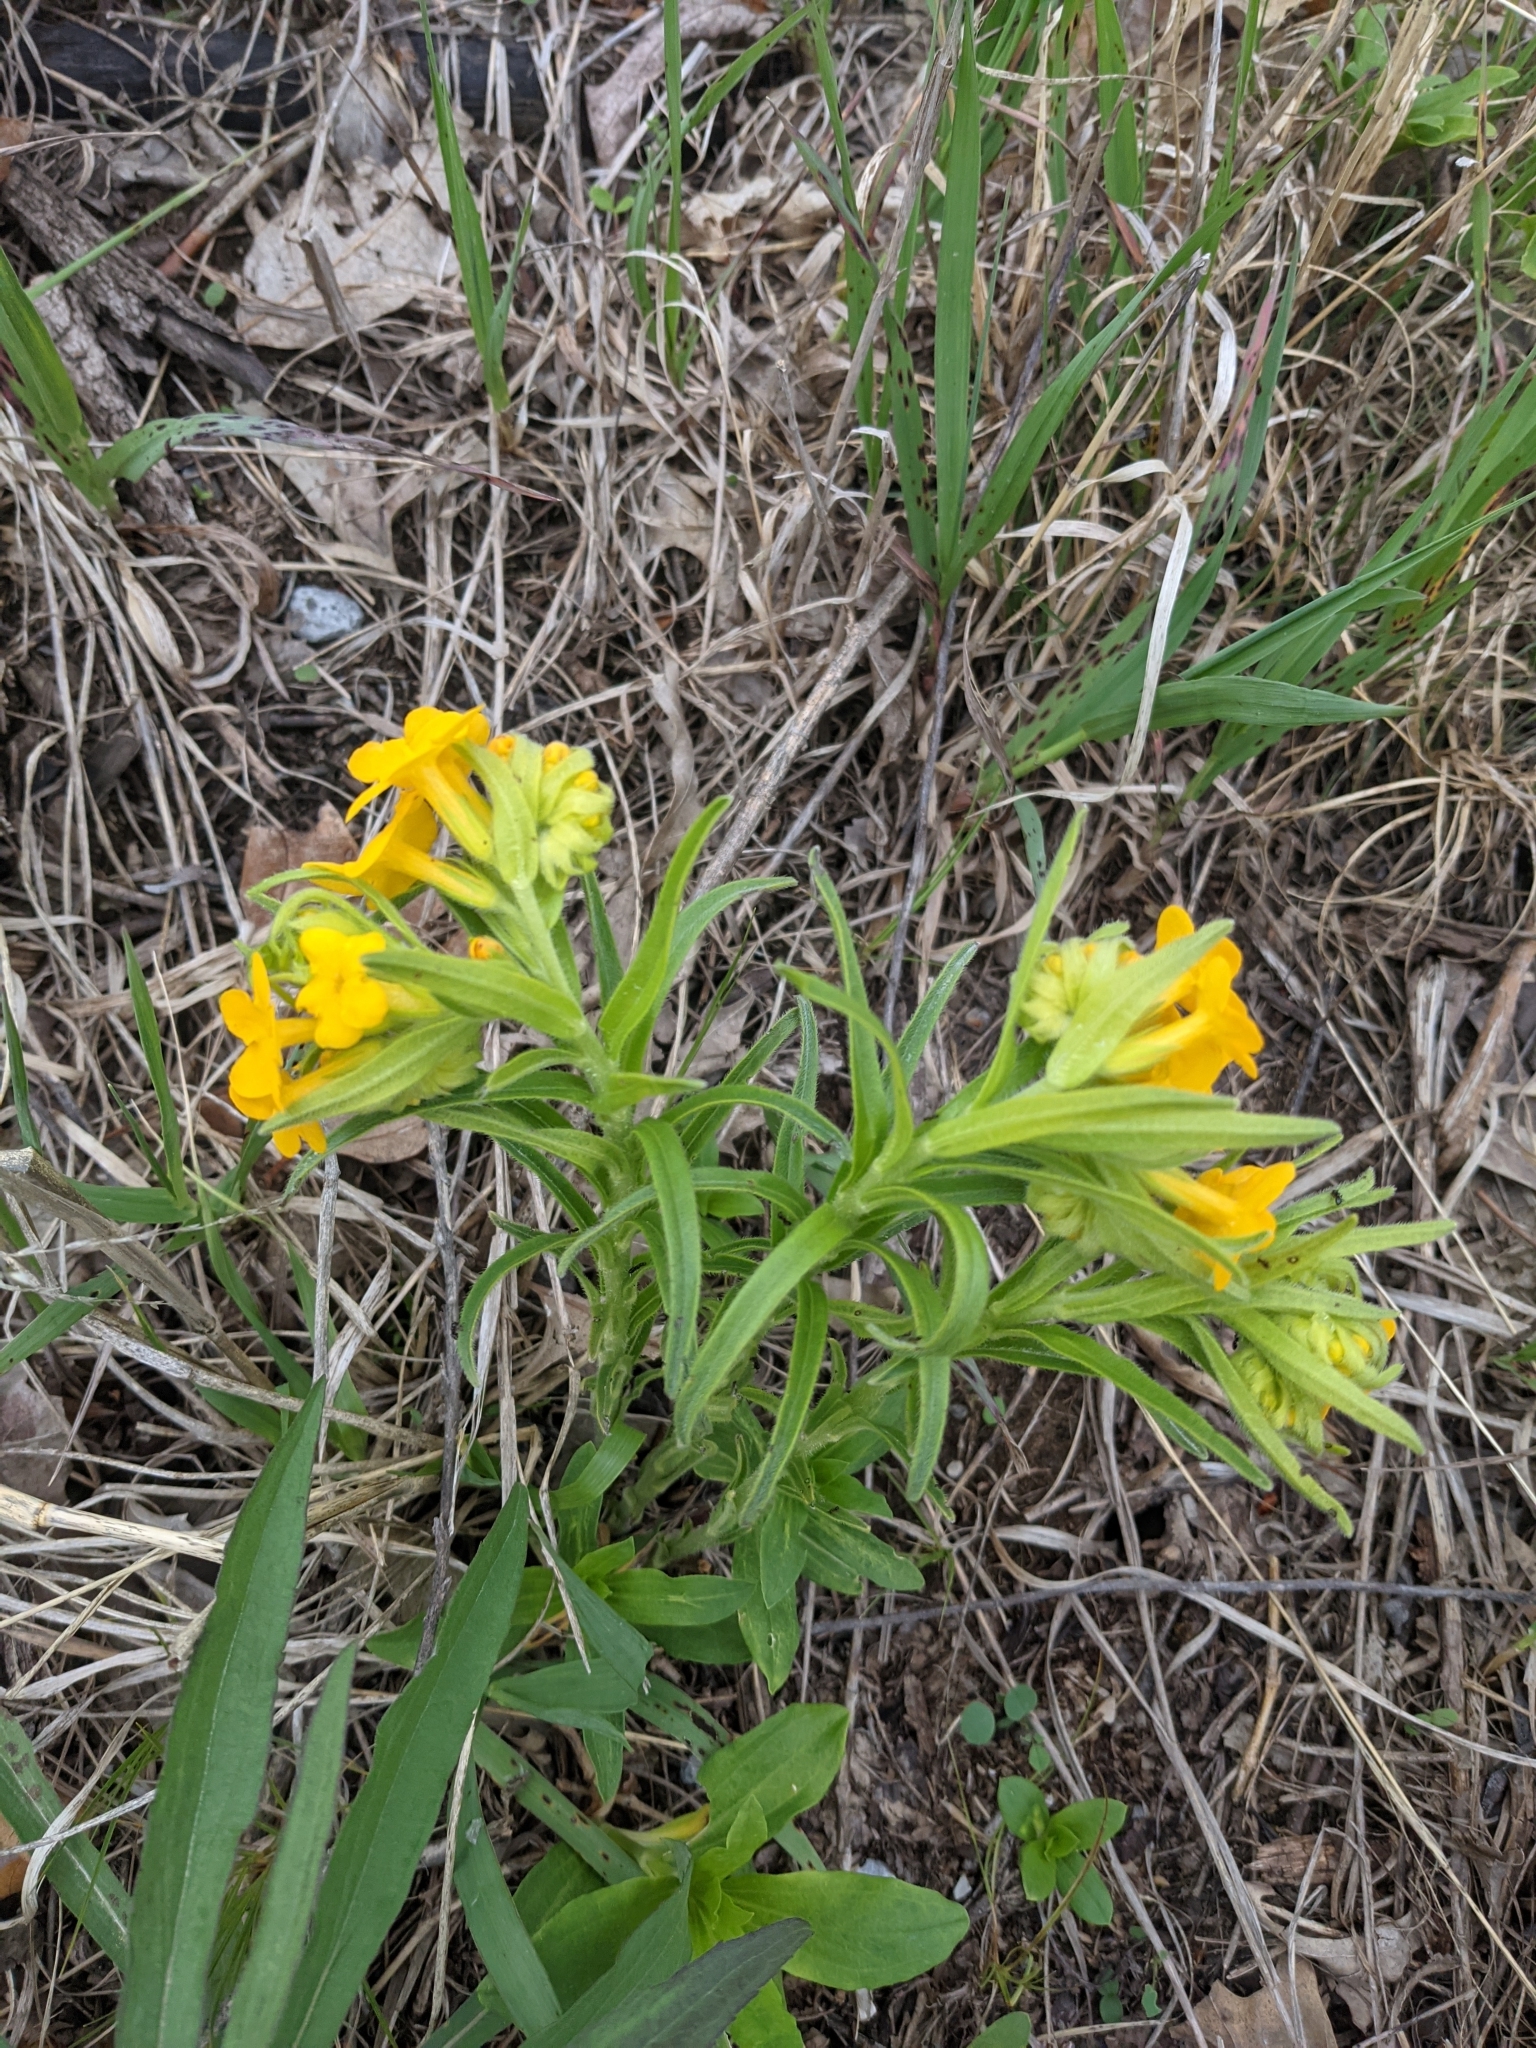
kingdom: Plantae
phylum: Tracheophyta
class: Magnoliopsida
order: Boraginales
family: Boraginaceae
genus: Lithospermum
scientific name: Lithospermum canescens
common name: Hoary puccoon
